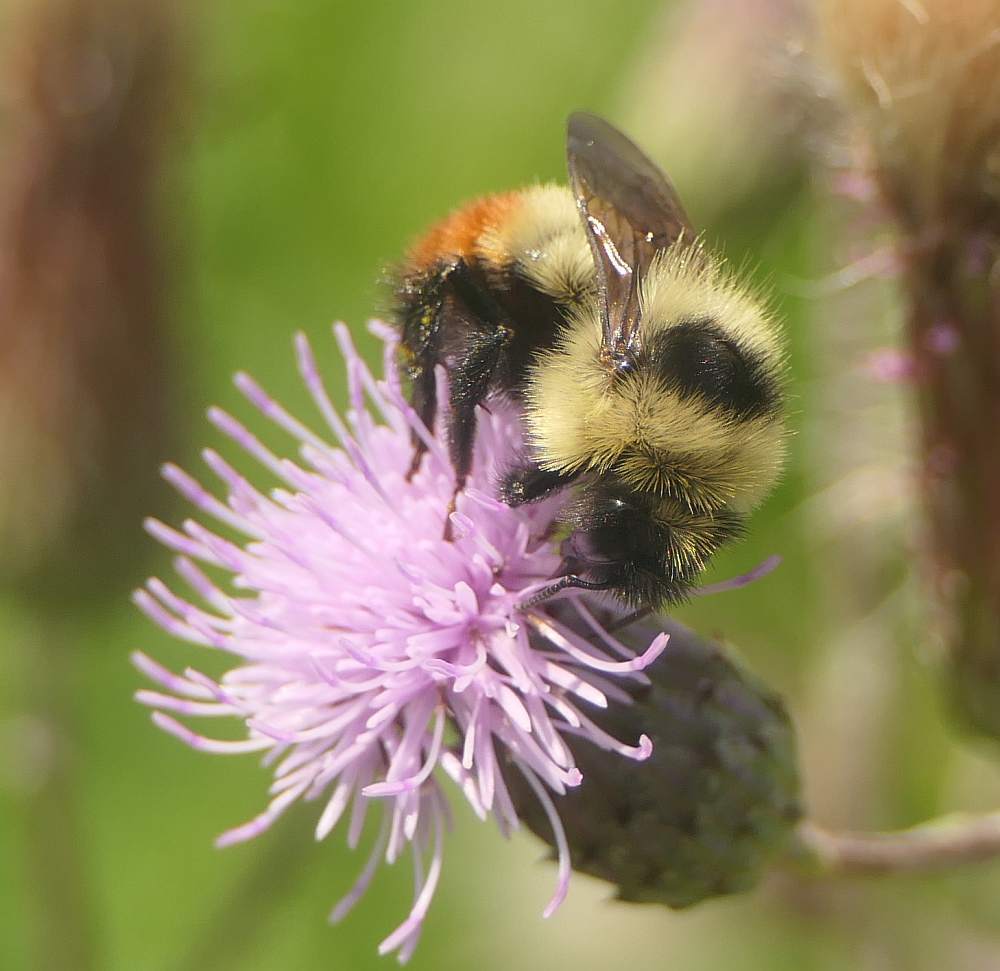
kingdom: Animalia
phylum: Arthropoda
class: Insecta
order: Hymenoptera
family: Apidae
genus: Bombus
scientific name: Bombus rufocinctus
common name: Red-belted bumble bee
